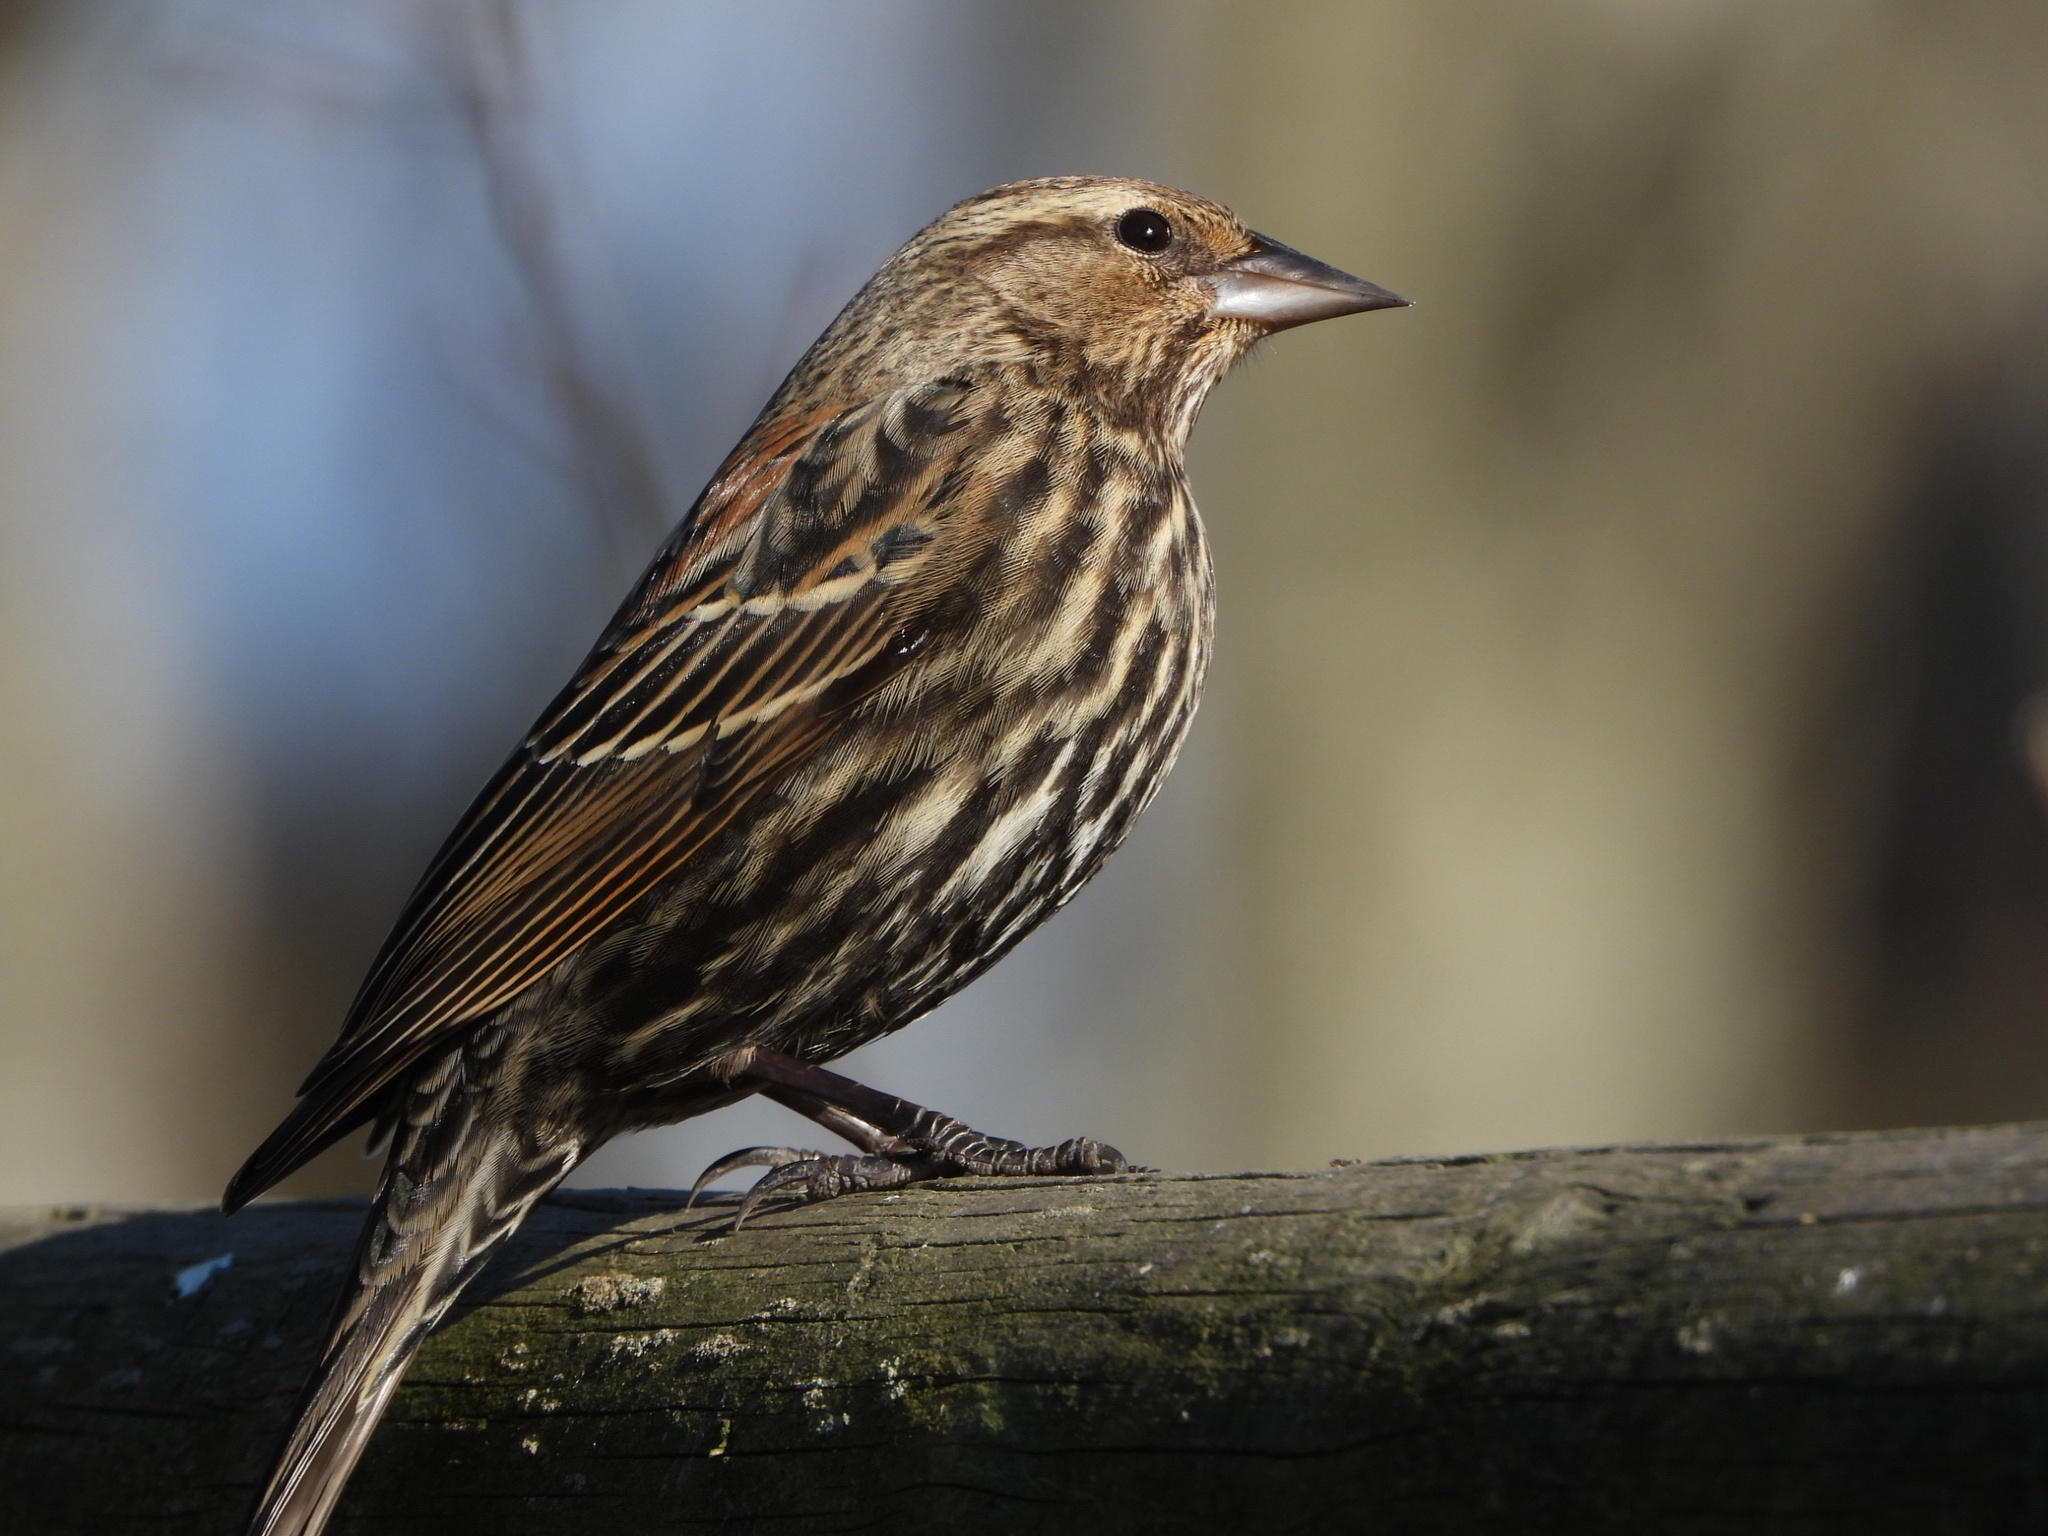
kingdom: Animalia
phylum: Chordata
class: Aves
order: Passeriformes
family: Icteridae
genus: Agelaius
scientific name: Agelaius phoeniceus
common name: Red-winged blackbird
